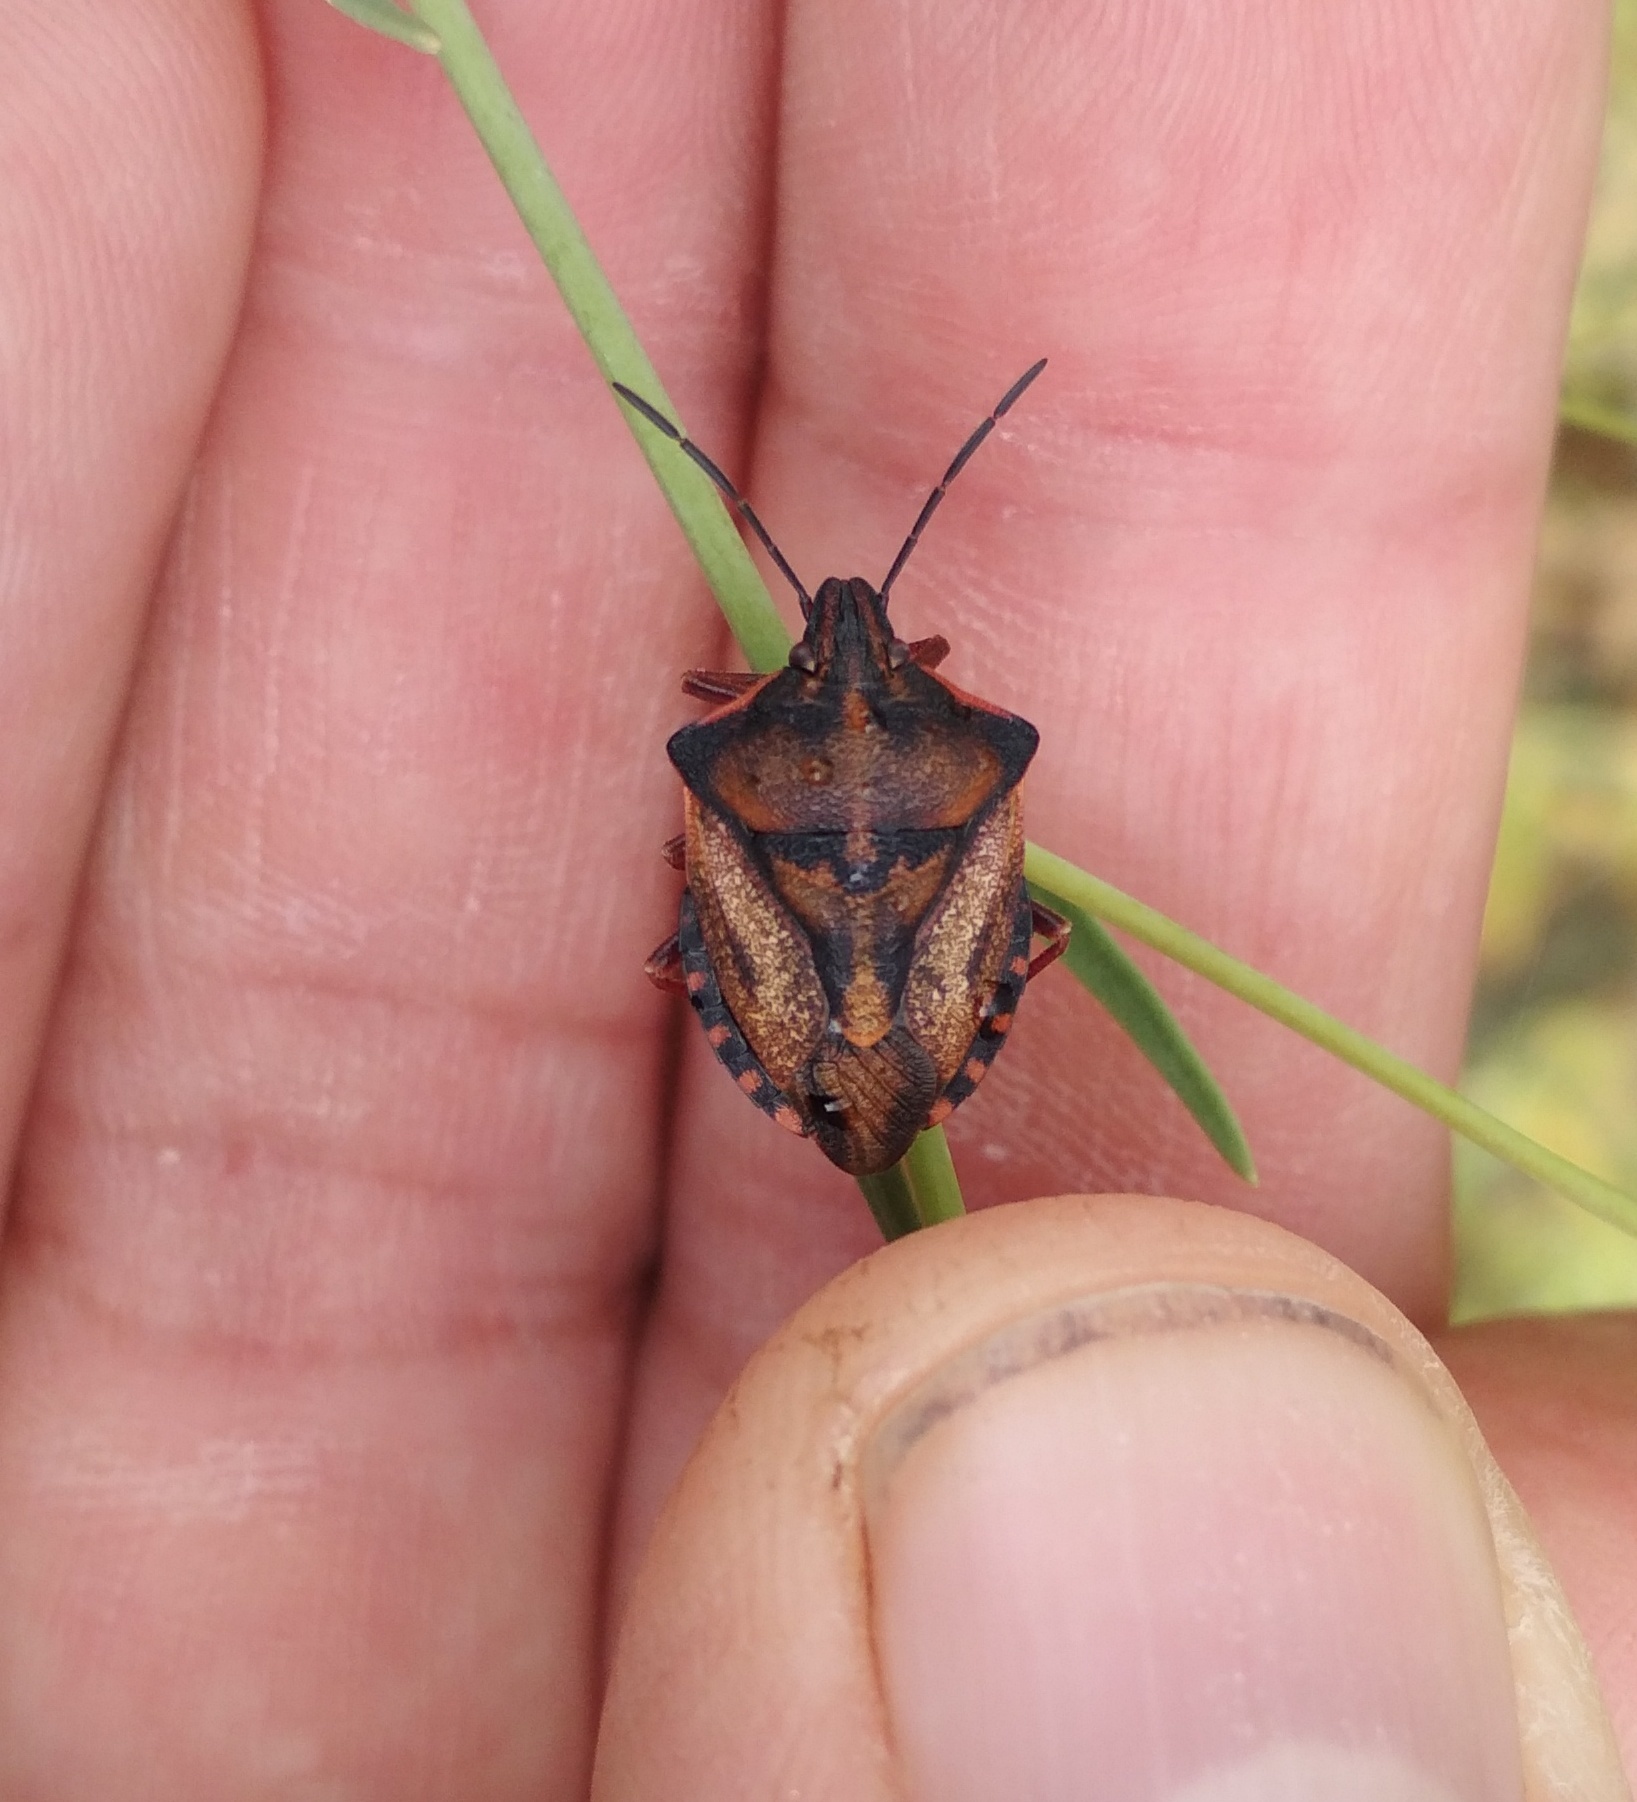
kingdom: Animalia
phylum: Arthropoda
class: Insecta
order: Hemiptera
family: Pentatomidae
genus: Carpocoris
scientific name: Carpocoris mediterraneus
